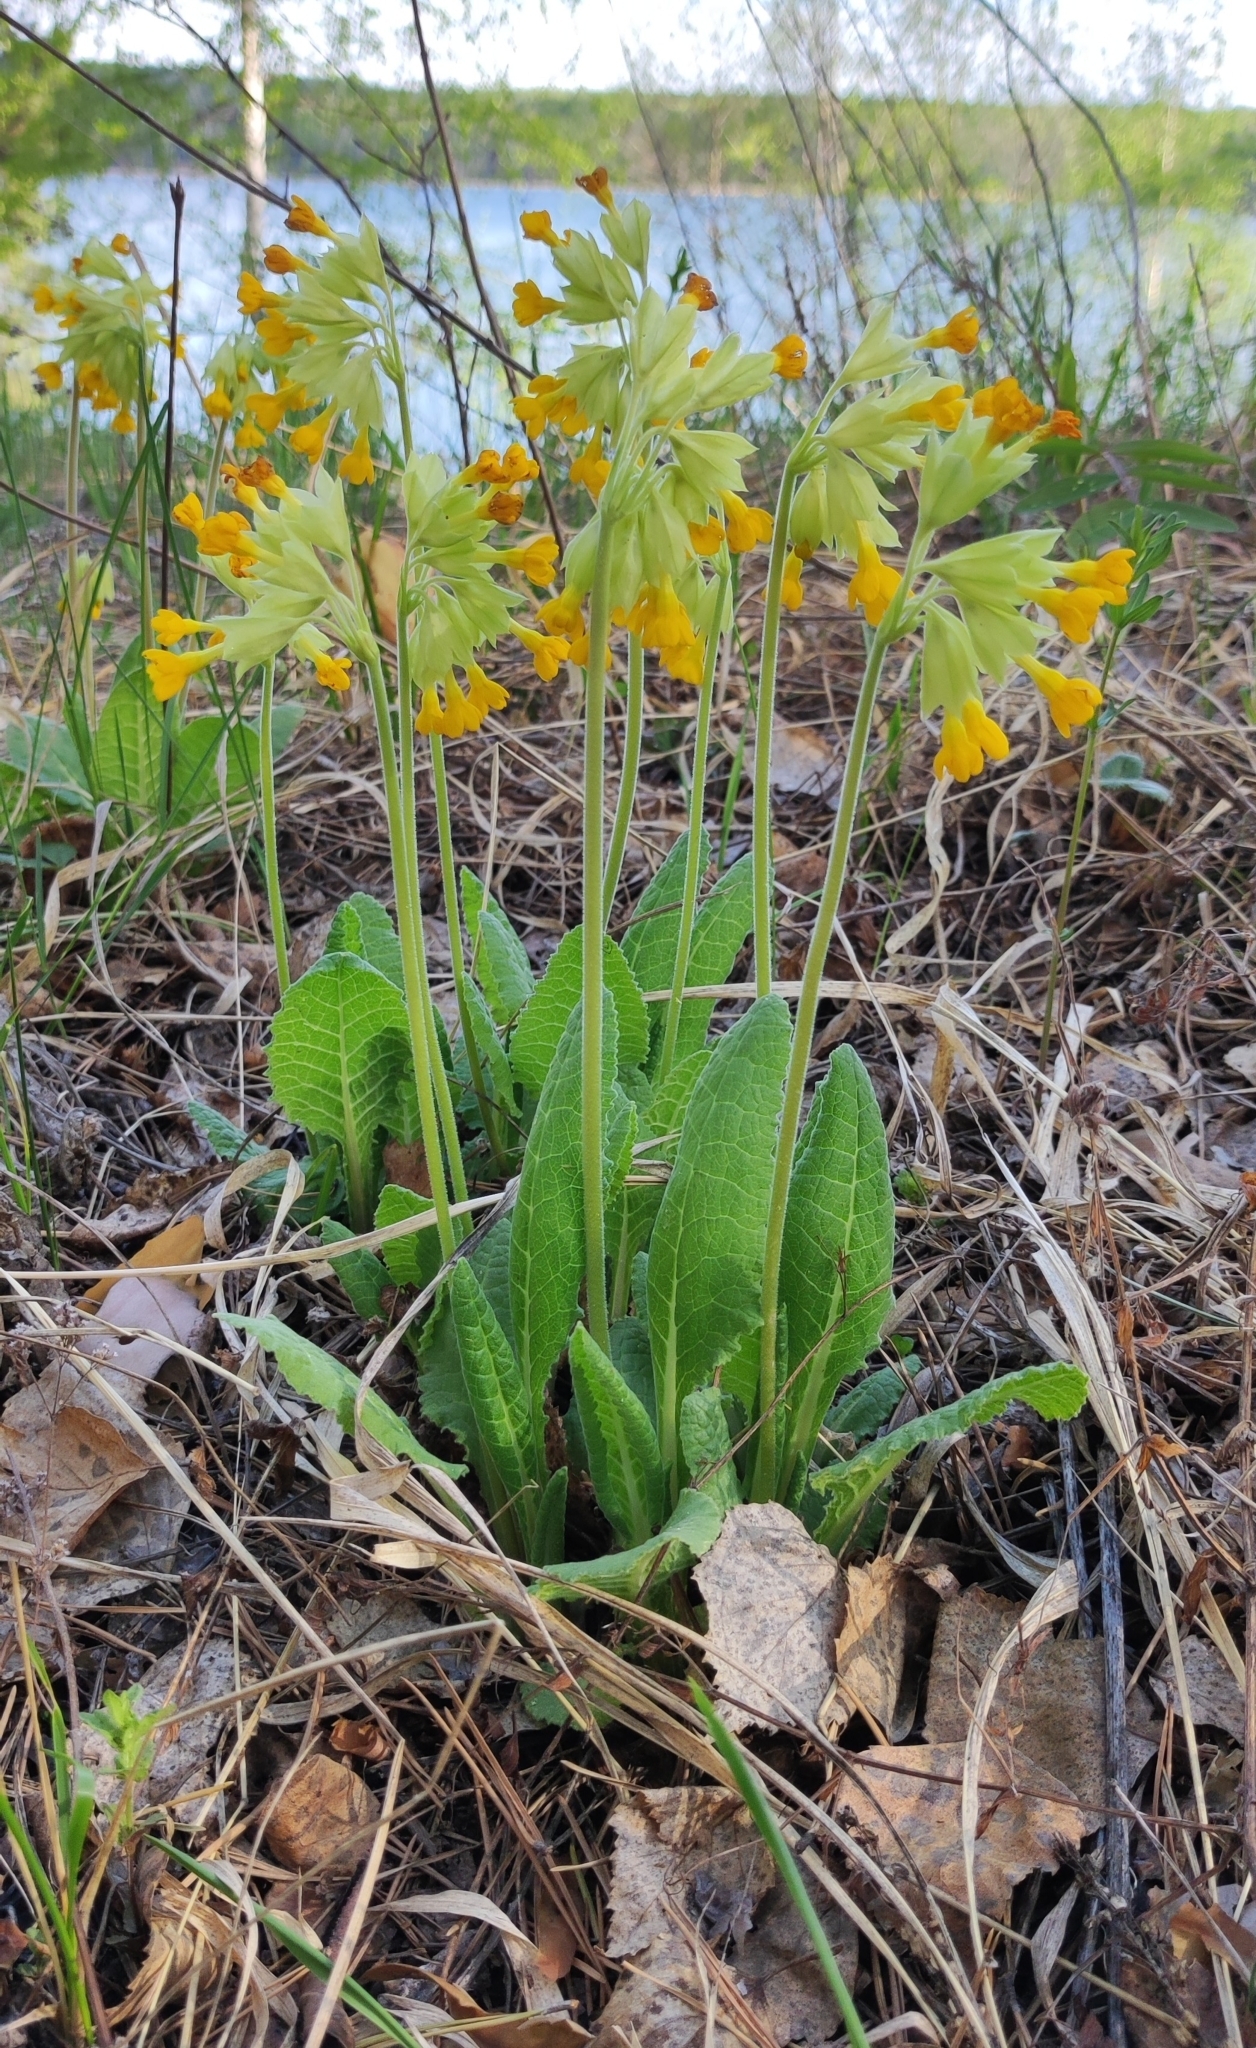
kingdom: Plantae
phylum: Tracheophyta
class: Magnoliopsida
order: Ericales
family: Primulaceae
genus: Primula
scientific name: Primula veris
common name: Cowslip
